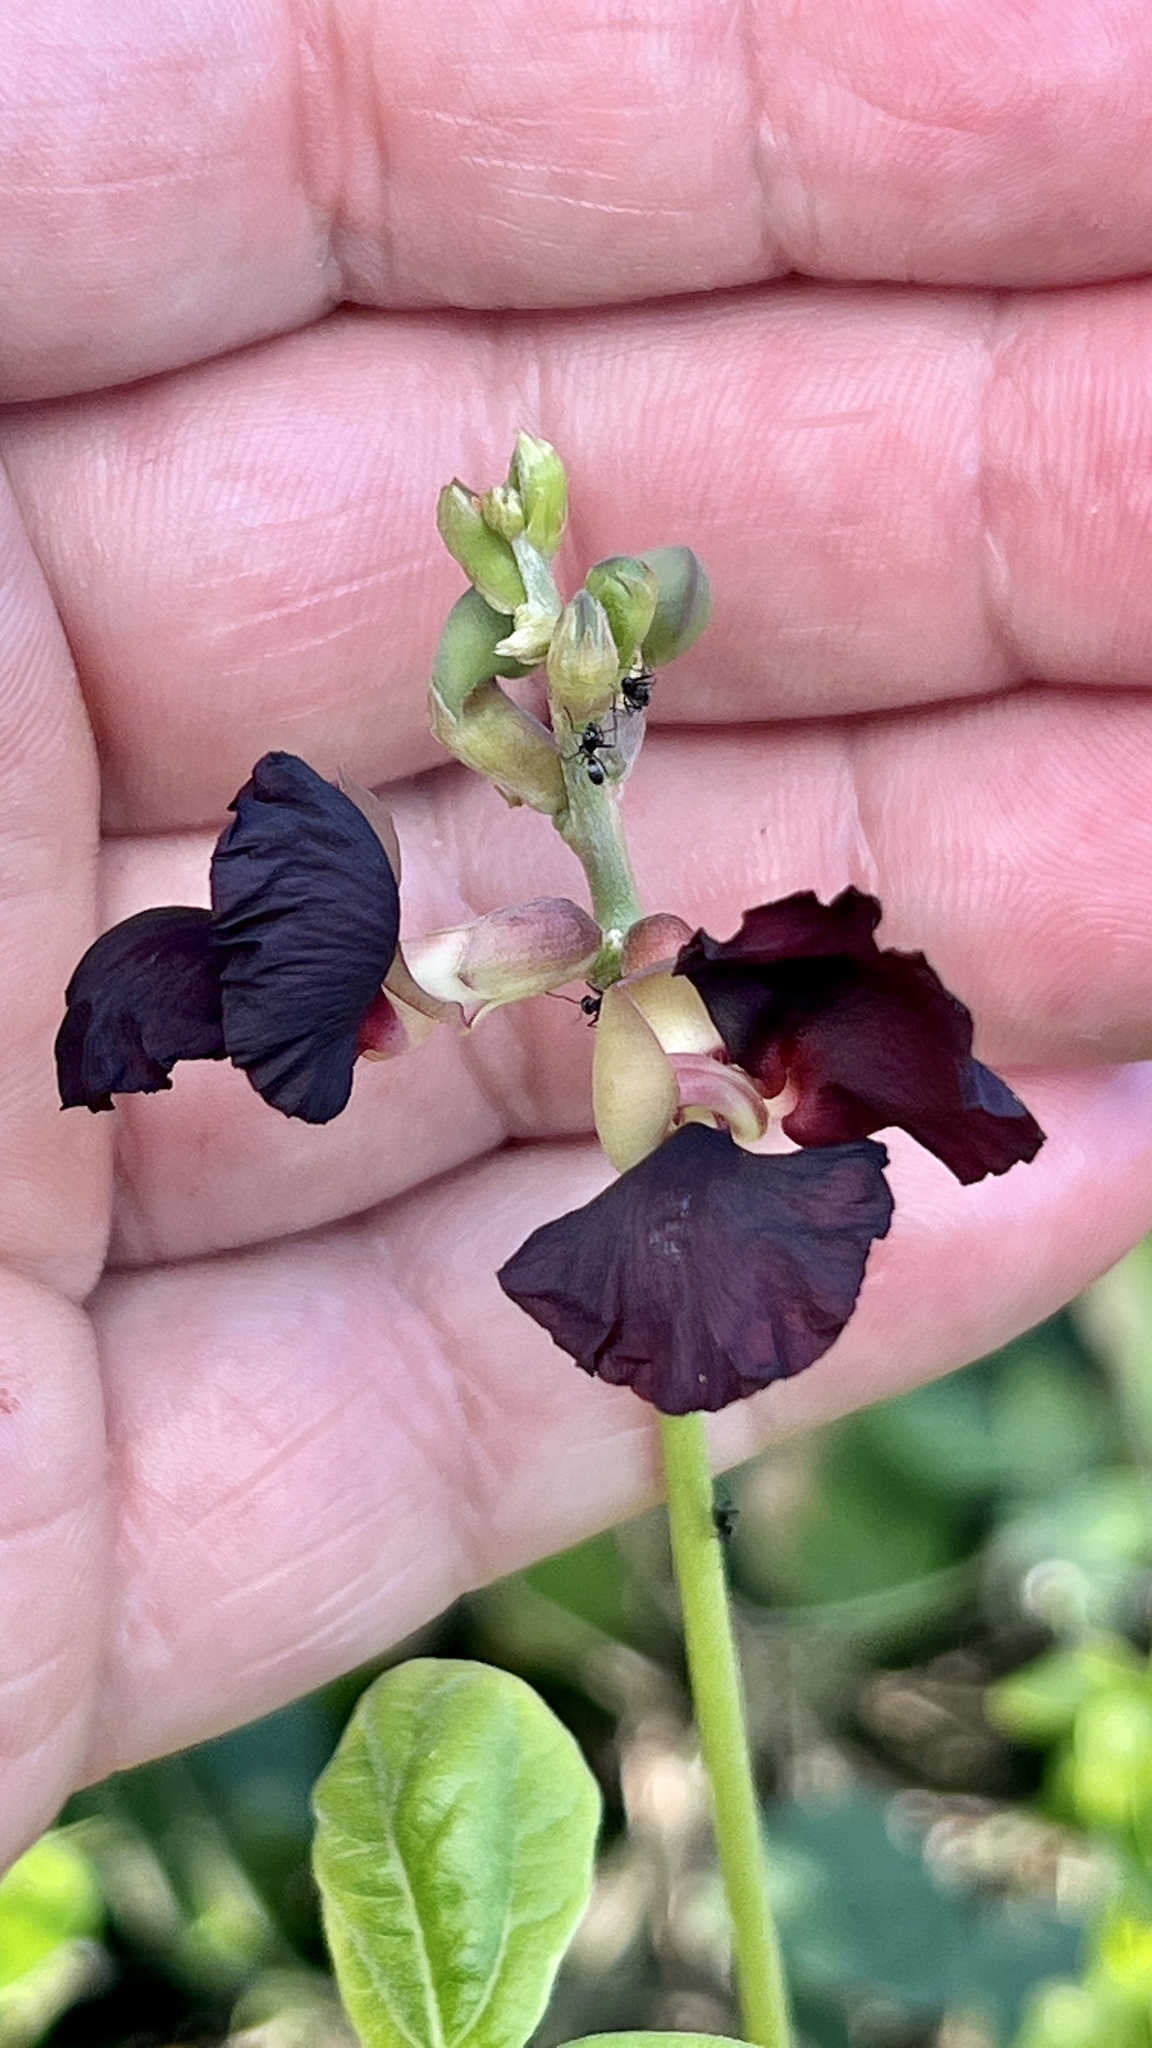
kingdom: Plantae
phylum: Tracheophyta
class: Magnoliopsida
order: Fabales
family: Fabaceae
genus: Macroptilium
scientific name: Macroptilium atropurpureum
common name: Purple bushbean
